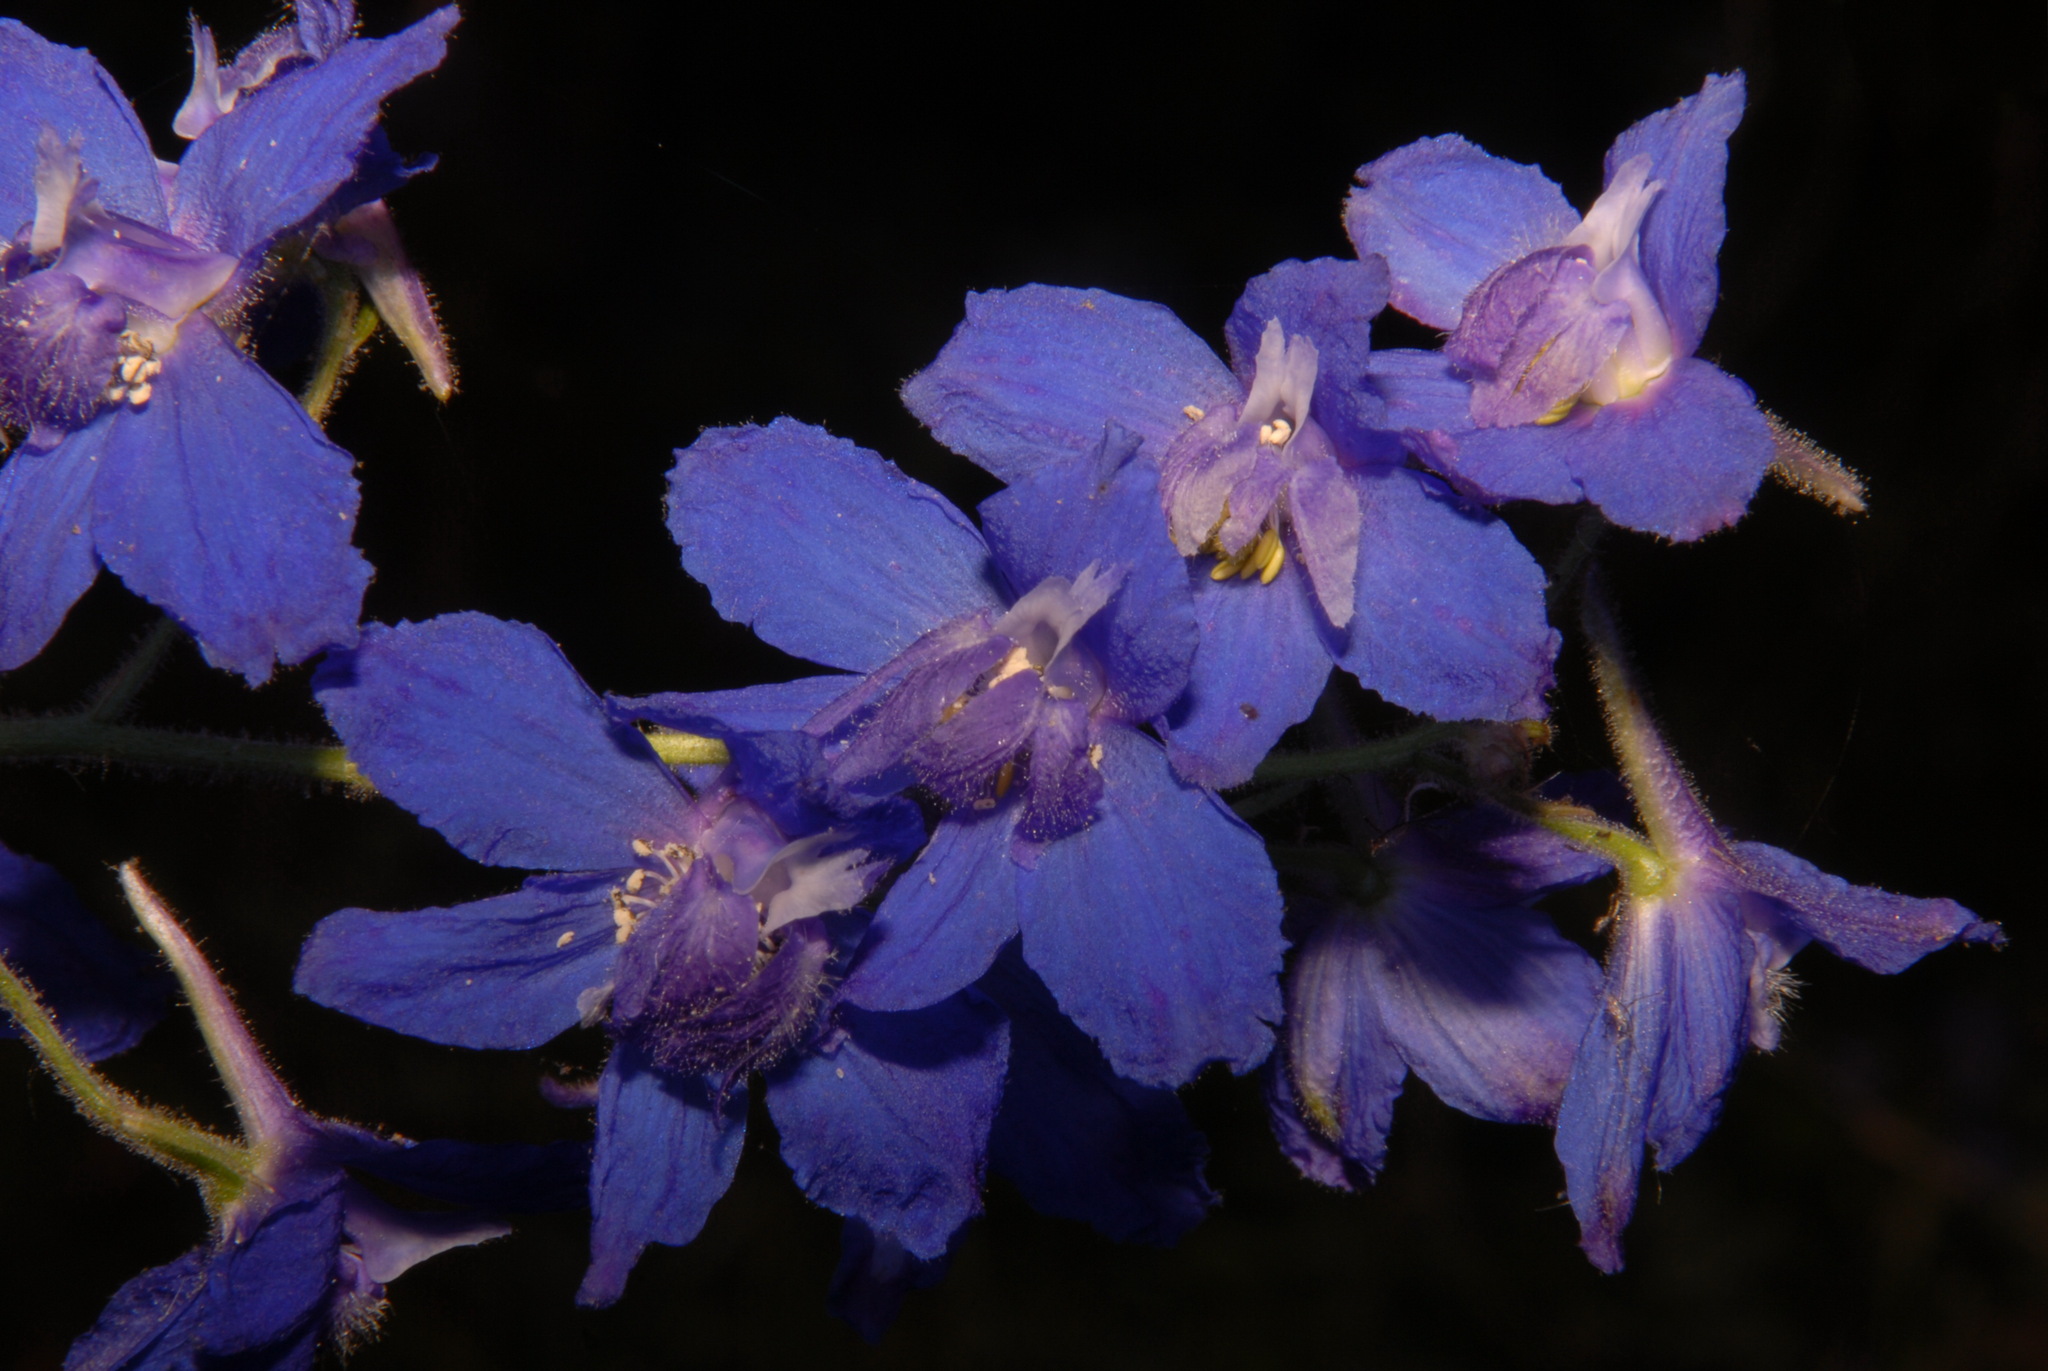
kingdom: Plantae
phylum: Tracheophyta
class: Magnoliopsida
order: Ranunculales
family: Ranunculaceae
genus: Delphinium
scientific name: Delphinium alabamicum
